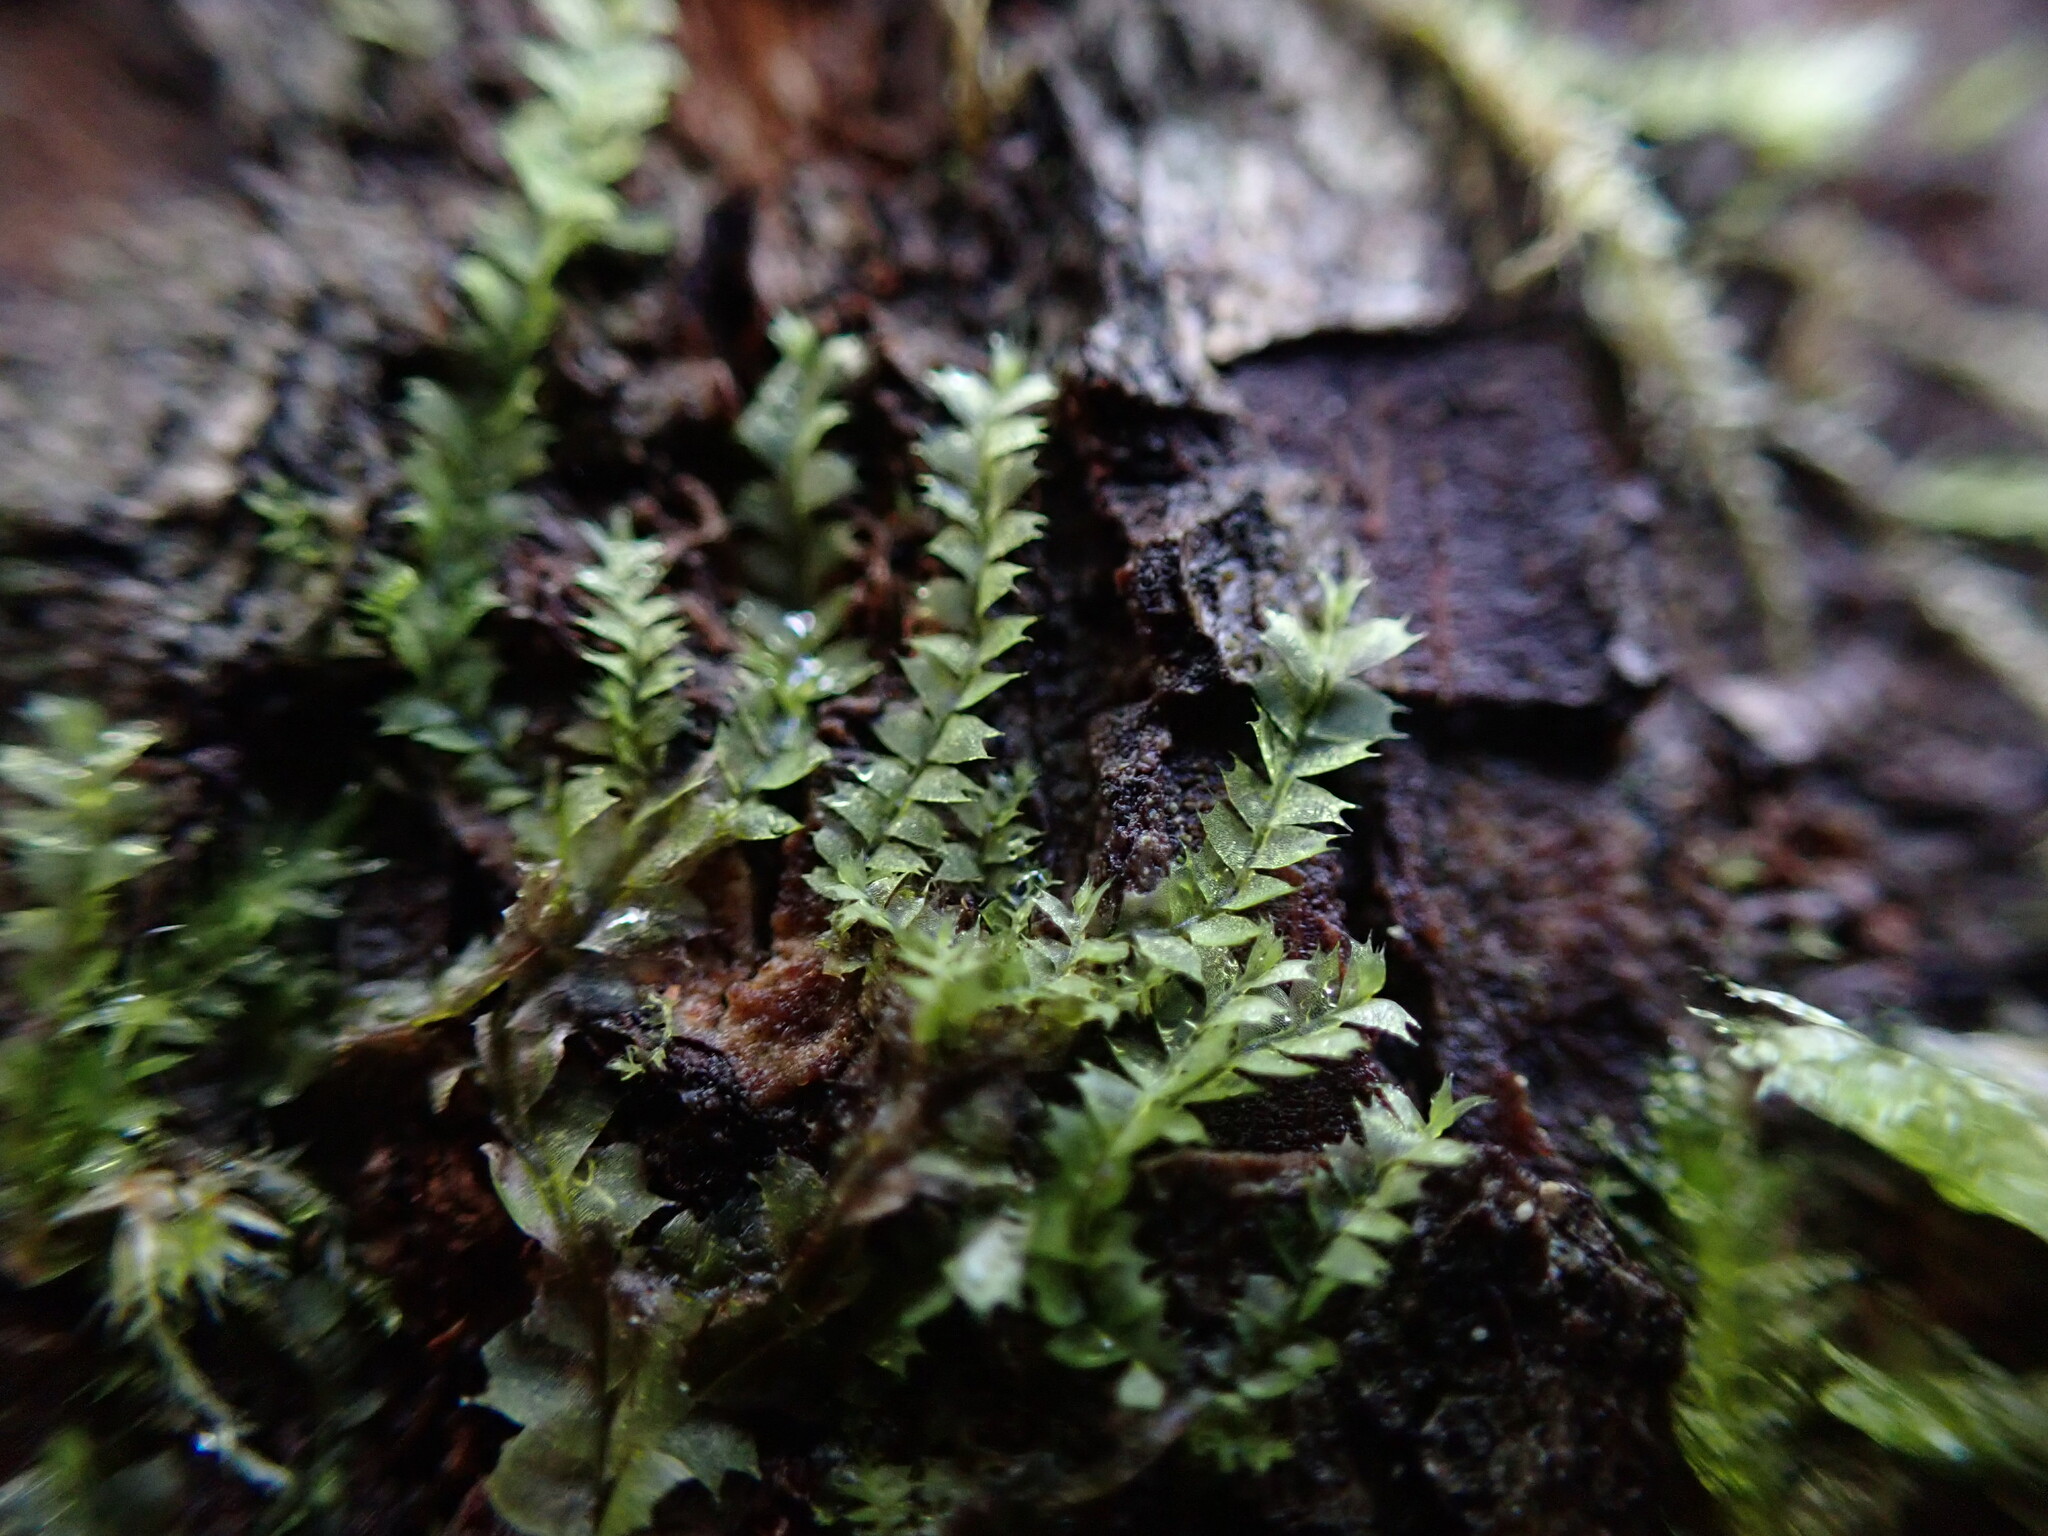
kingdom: Plantae
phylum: Marchantiophyta
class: Jungermanniopsida
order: Jungermanniales
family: Lophocoleaceae
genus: Lophocolea
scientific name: Lophocolea bidentata
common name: Bifid crestwort
